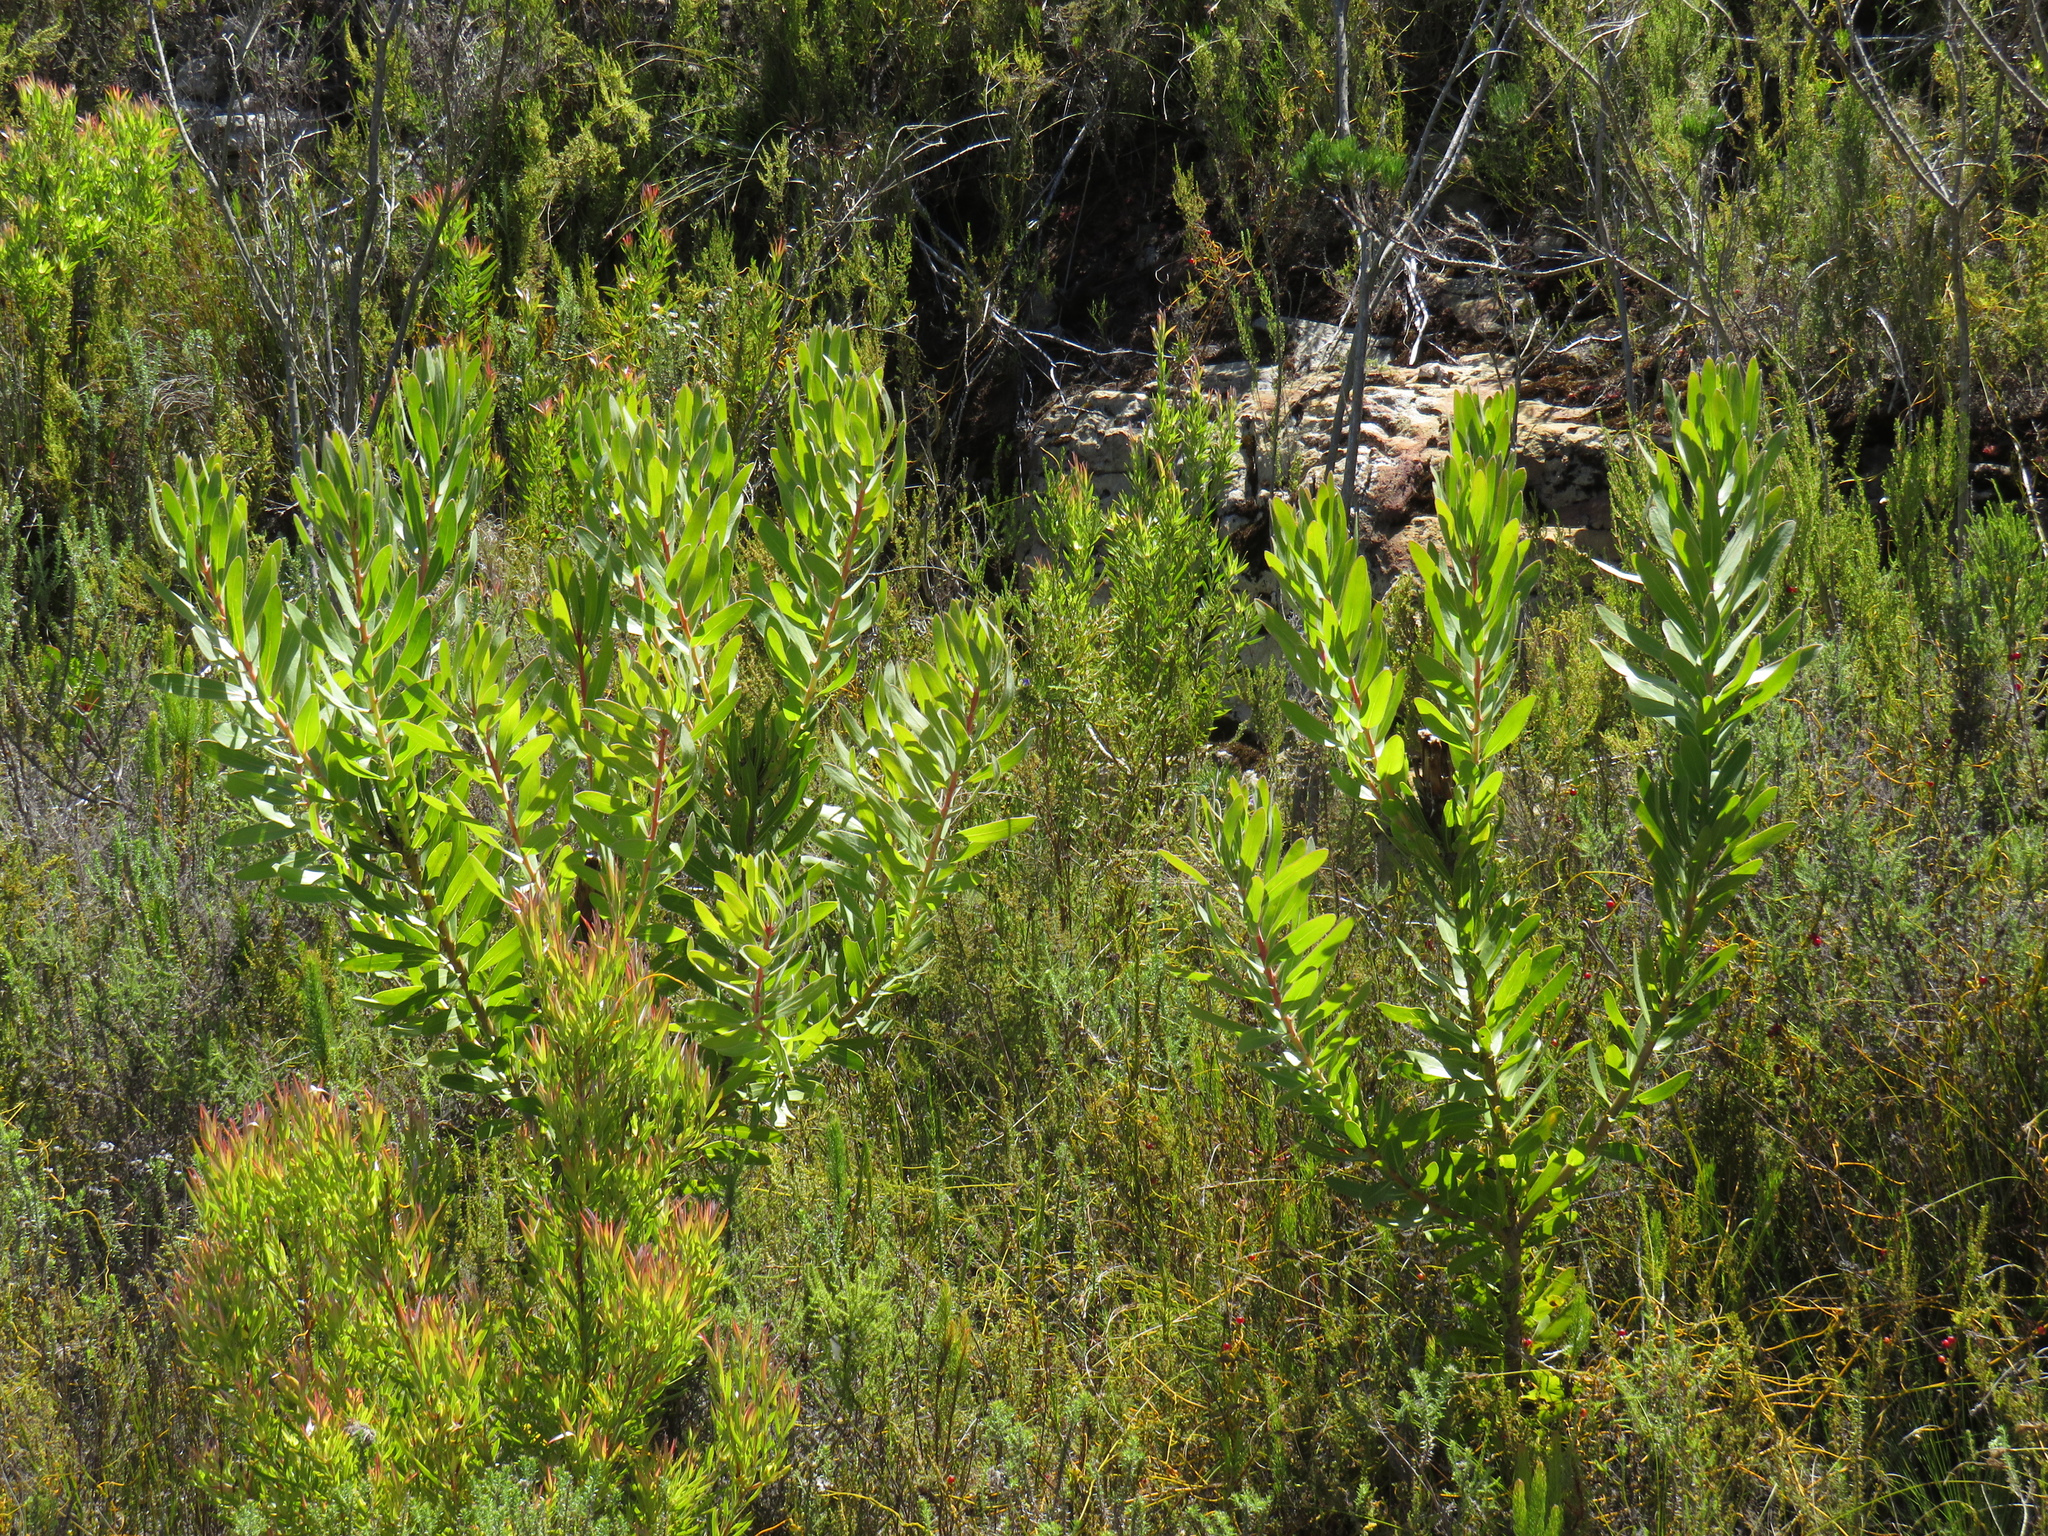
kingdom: Plantae
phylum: Tracheophyta
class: Magnoliopsida
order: Proteales
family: Proteaceae
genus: Protea
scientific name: Protea lepidocarpodendron
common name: Black-bearded protea
